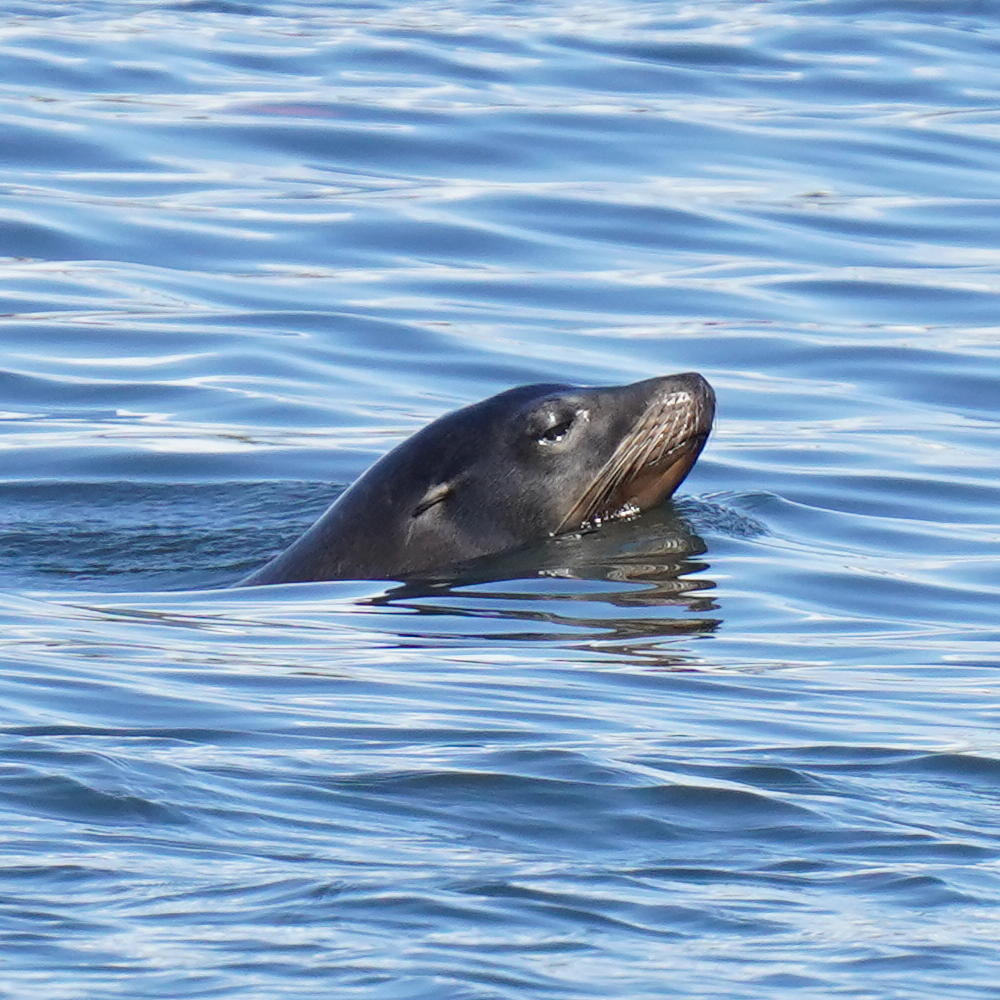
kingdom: Animalia
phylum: Chordata
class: Mammalia
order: Carnivora
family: Otariidae
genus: Zalophus
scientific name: Zalophus californianus
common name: California sea lion
